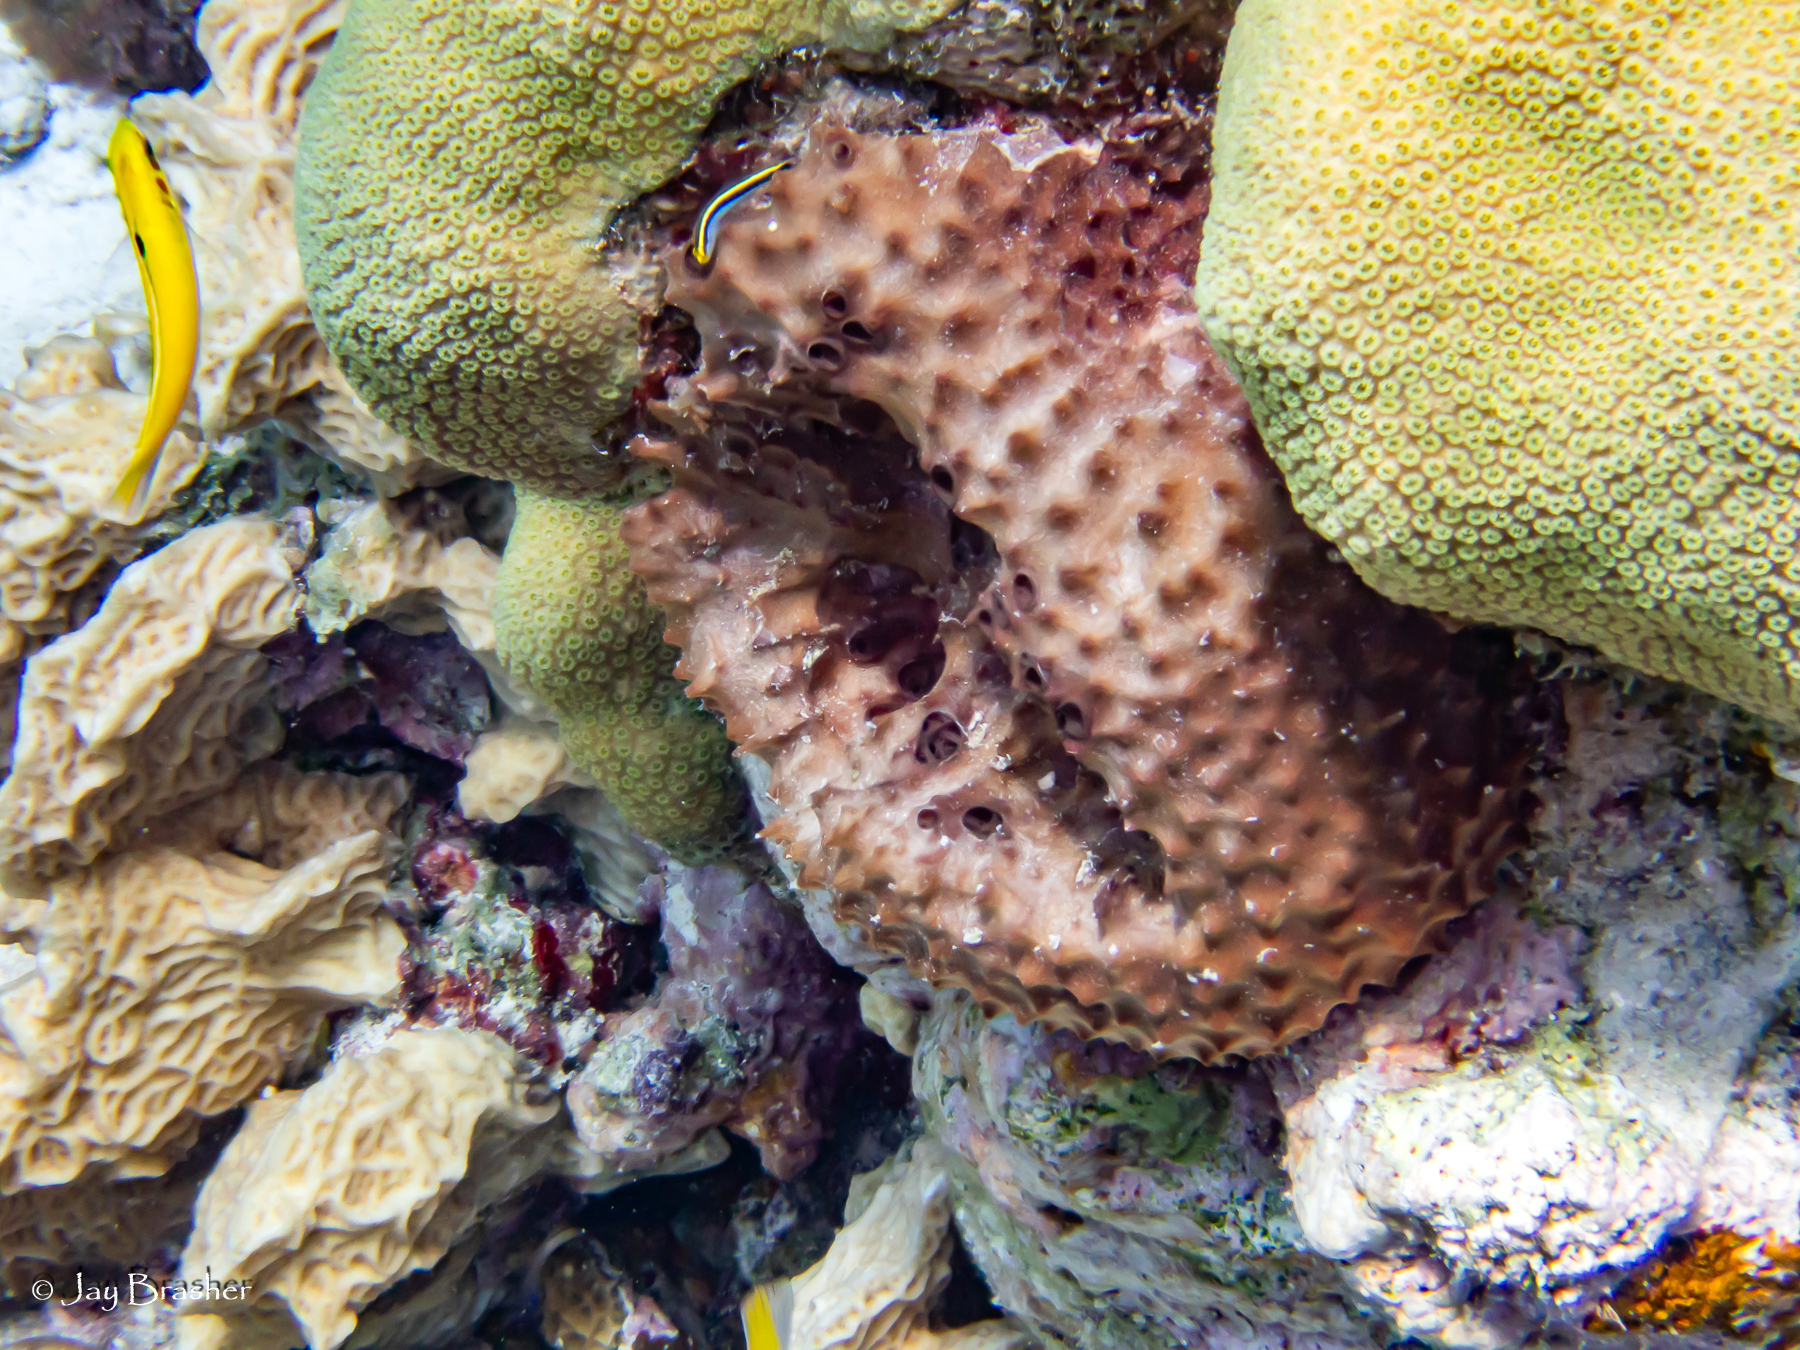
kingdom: Animalia
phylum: Cnidaria
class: Anthozoa
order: Scleractinia
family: Agariciidae
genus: Agaricia
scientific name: Agaricia agaricites
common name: Lettuce coral
